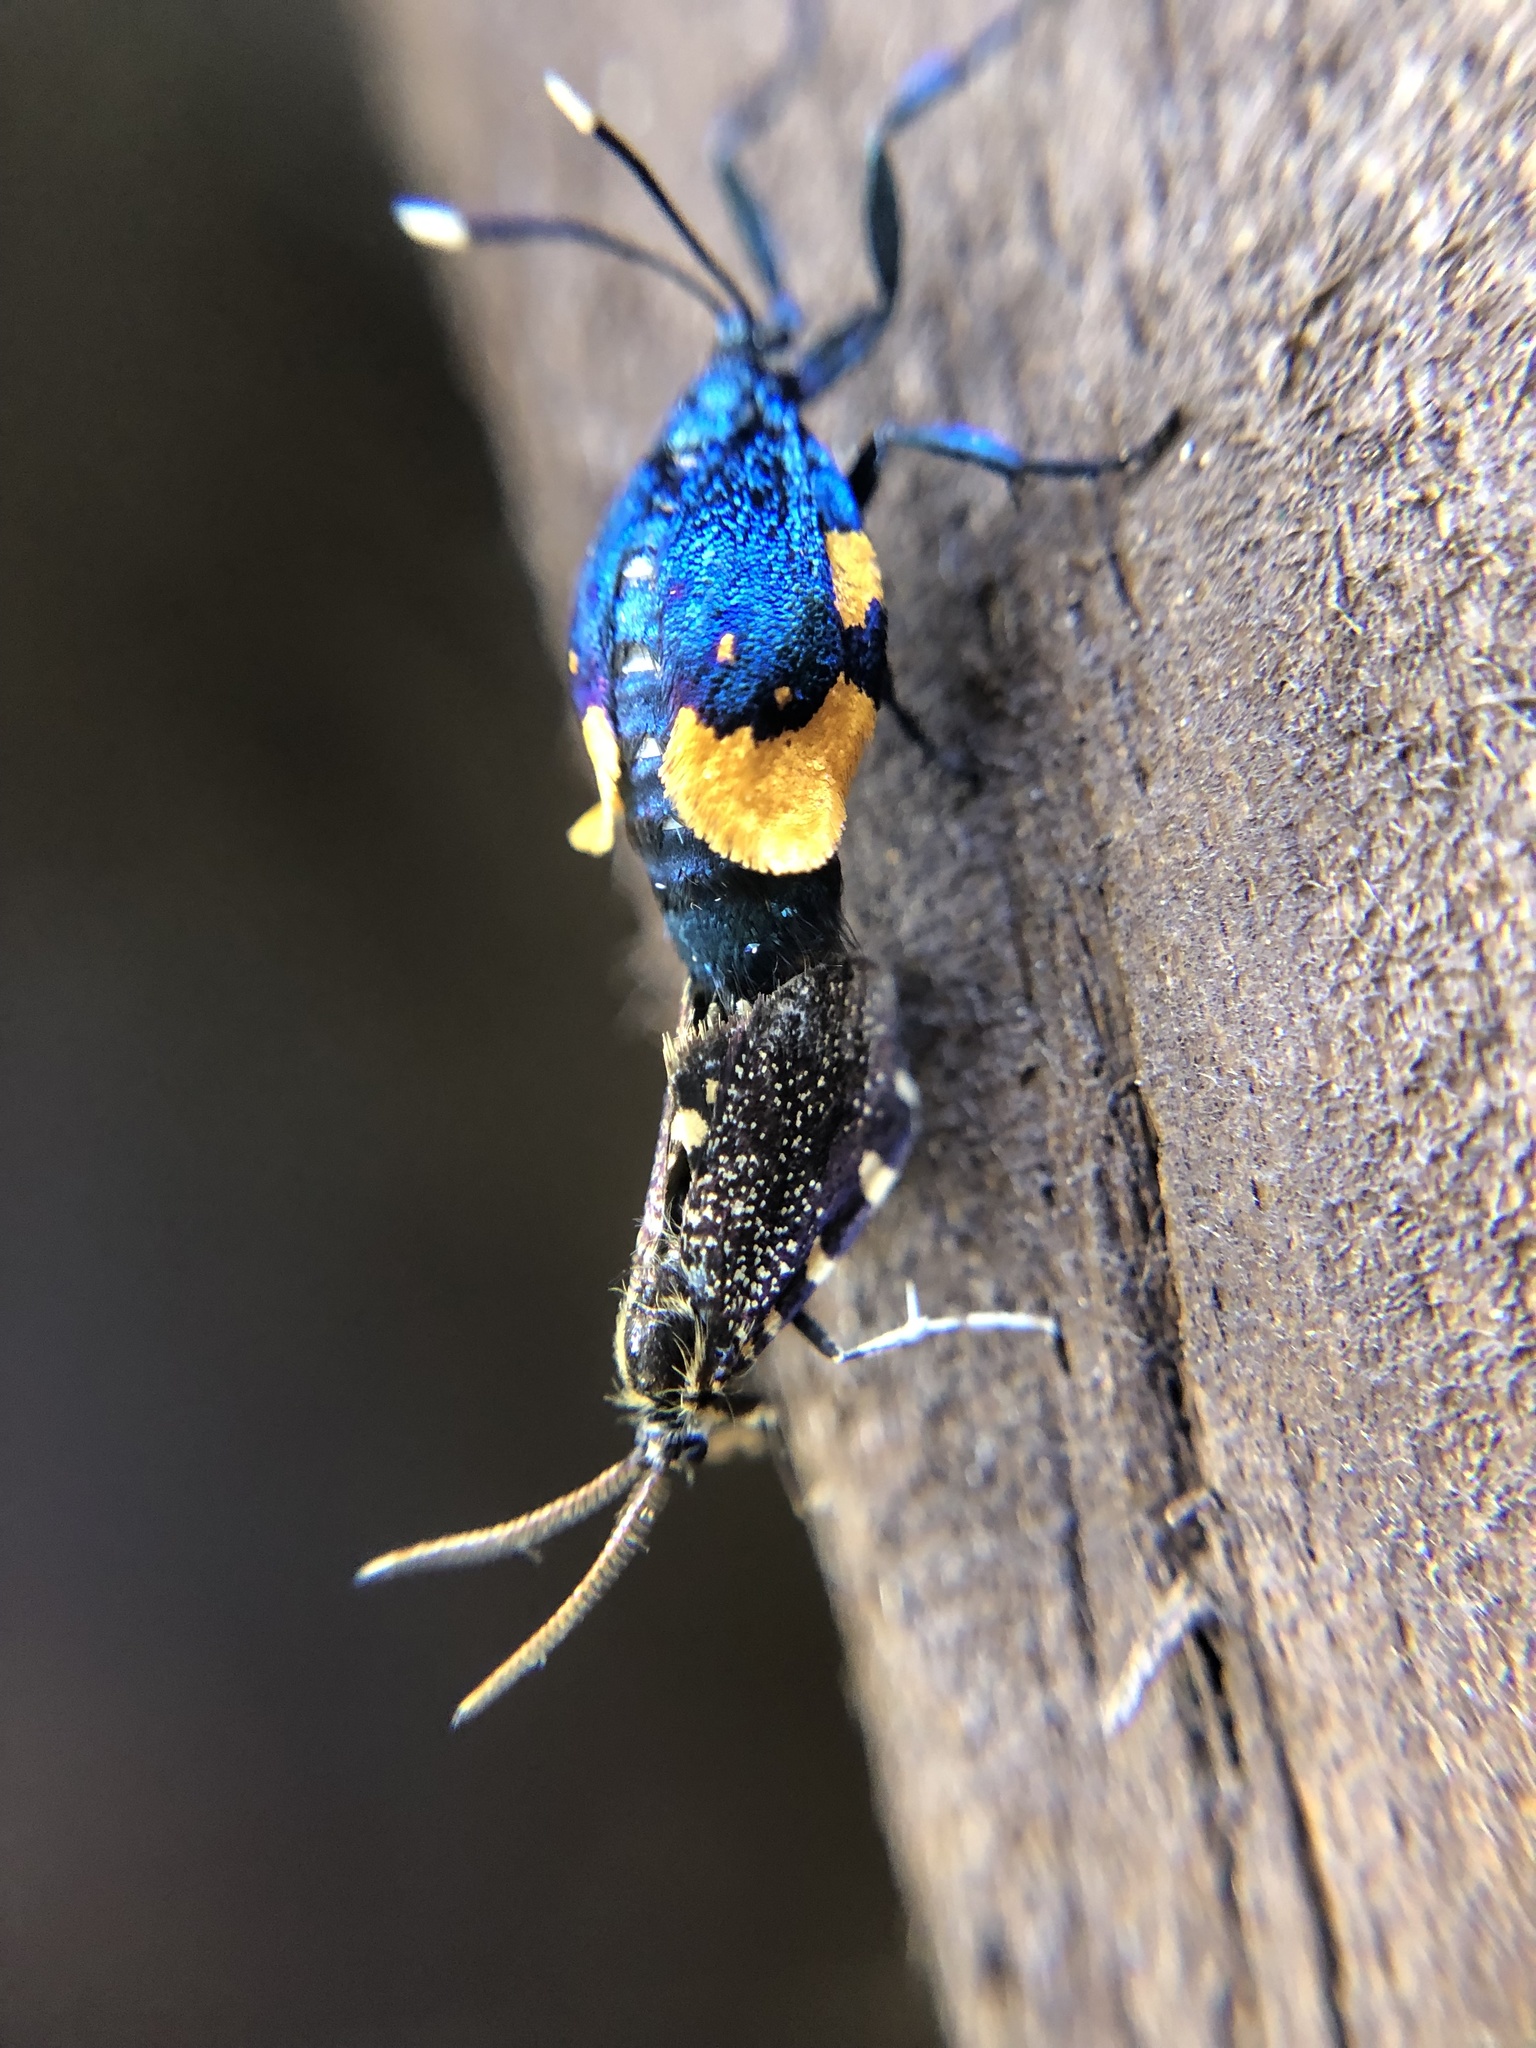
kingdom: Animalia
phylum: Arthropoda
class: Insecta
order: Lepidoptera
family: Psychidae
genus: Cebysa
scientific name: Cebysa leucotelus
